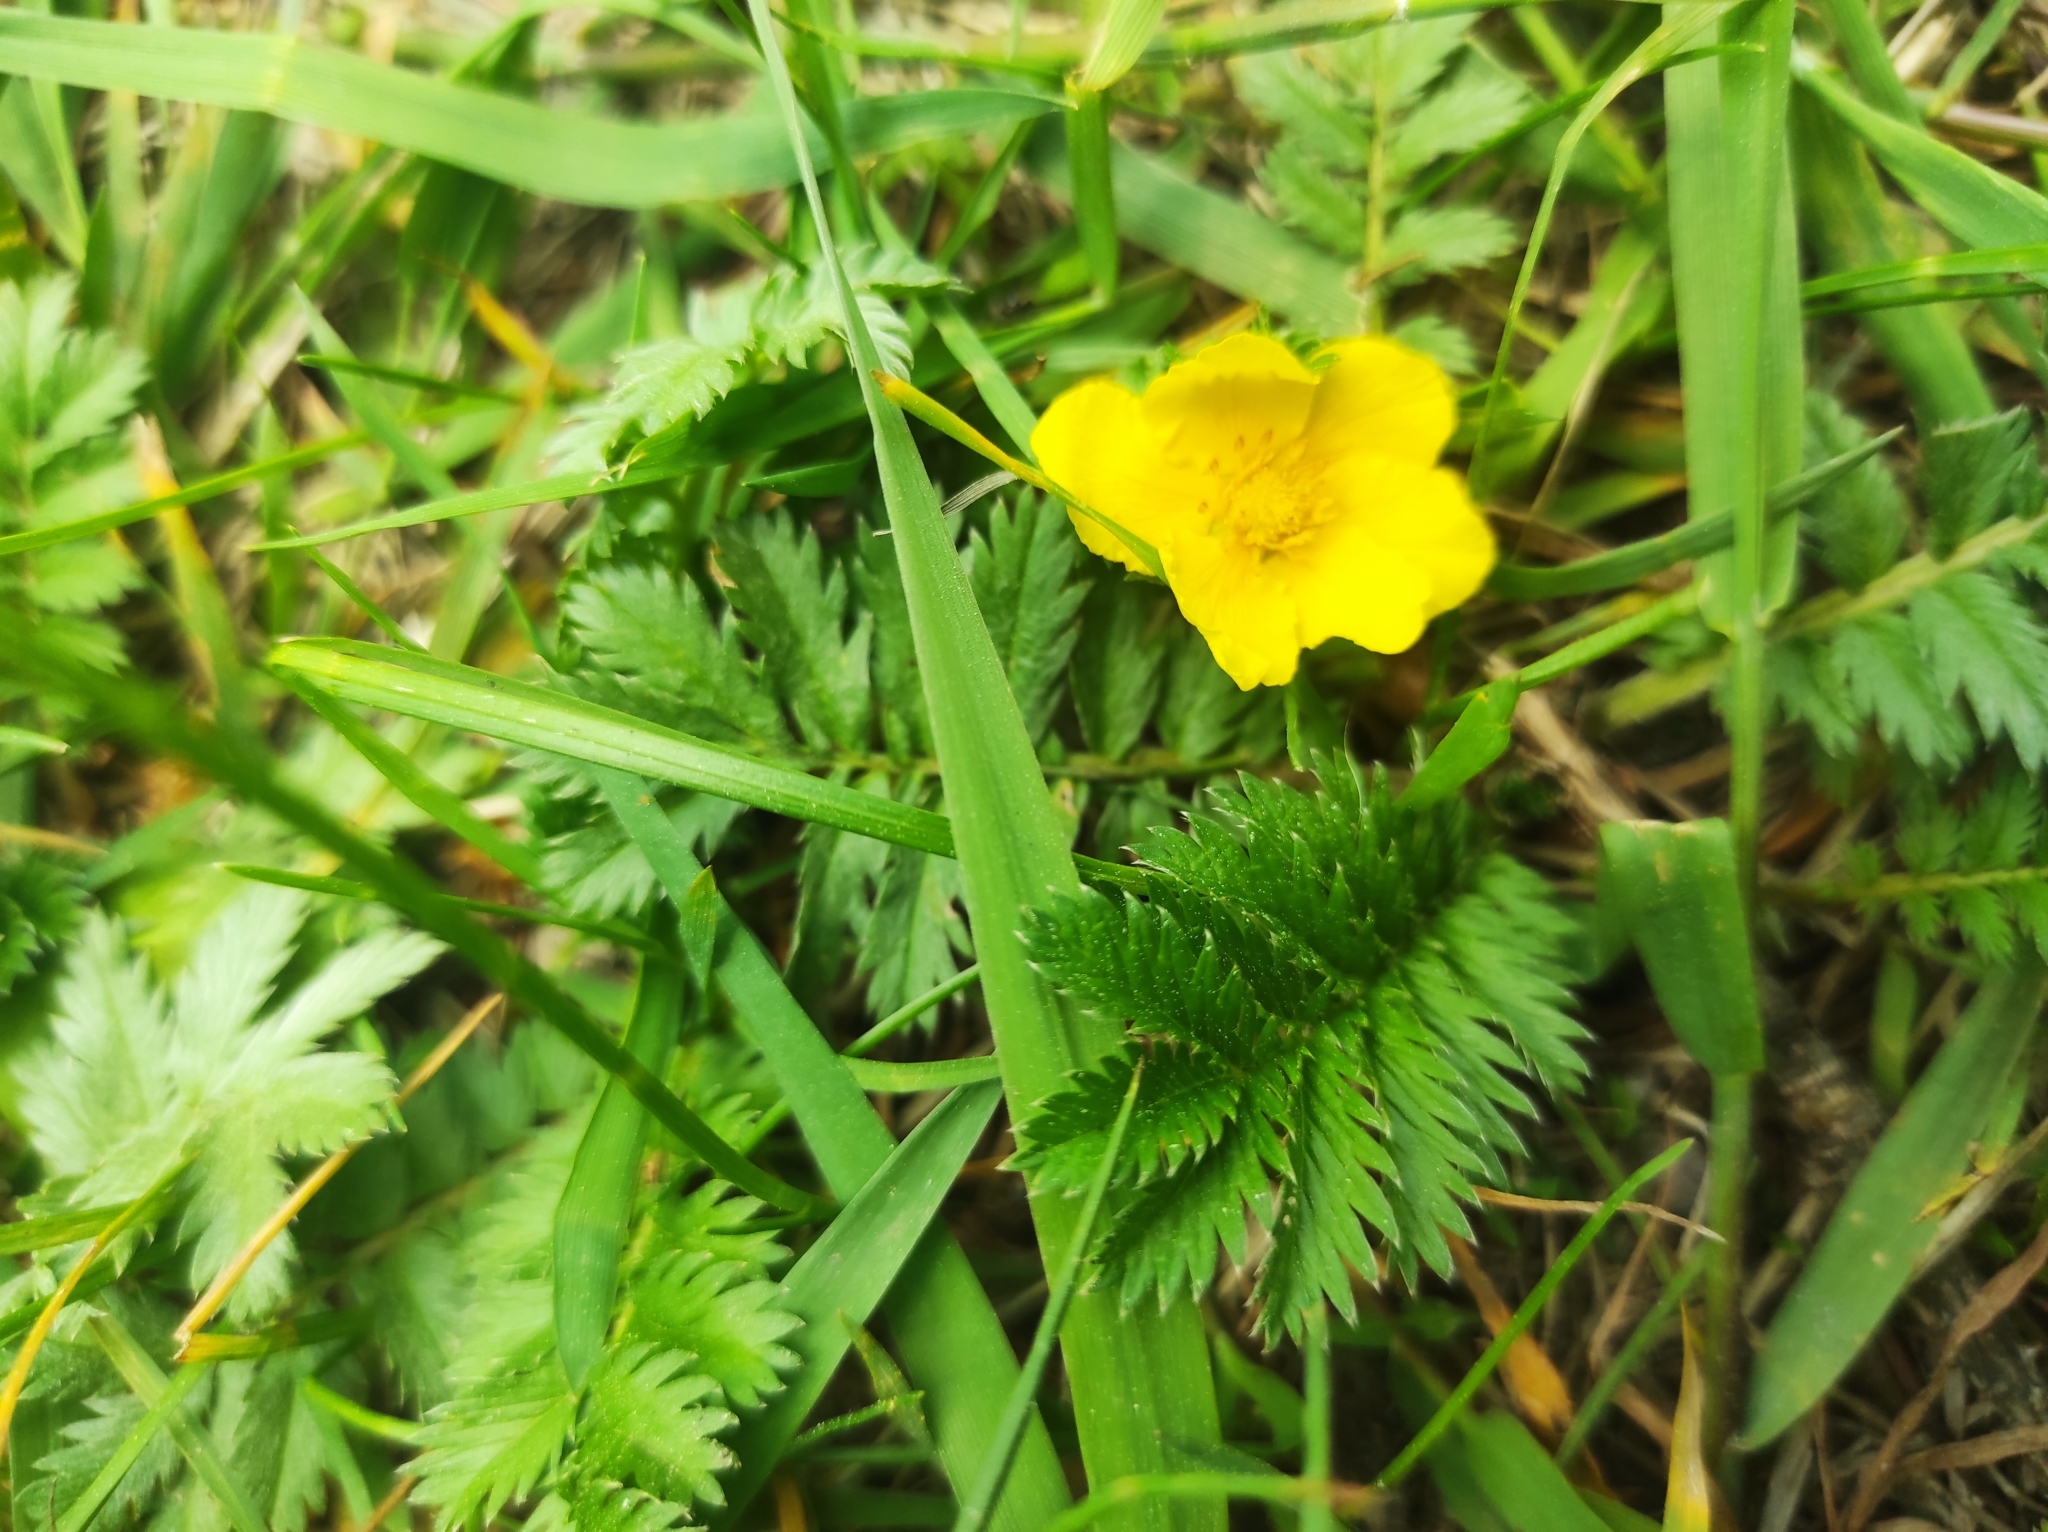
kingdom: Plantae
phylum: Tracheophyta
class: Magnoliopsida
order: Rosales
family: Rosaceae
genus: Argentina
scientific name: Argentina anserina
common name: Common silverweed
